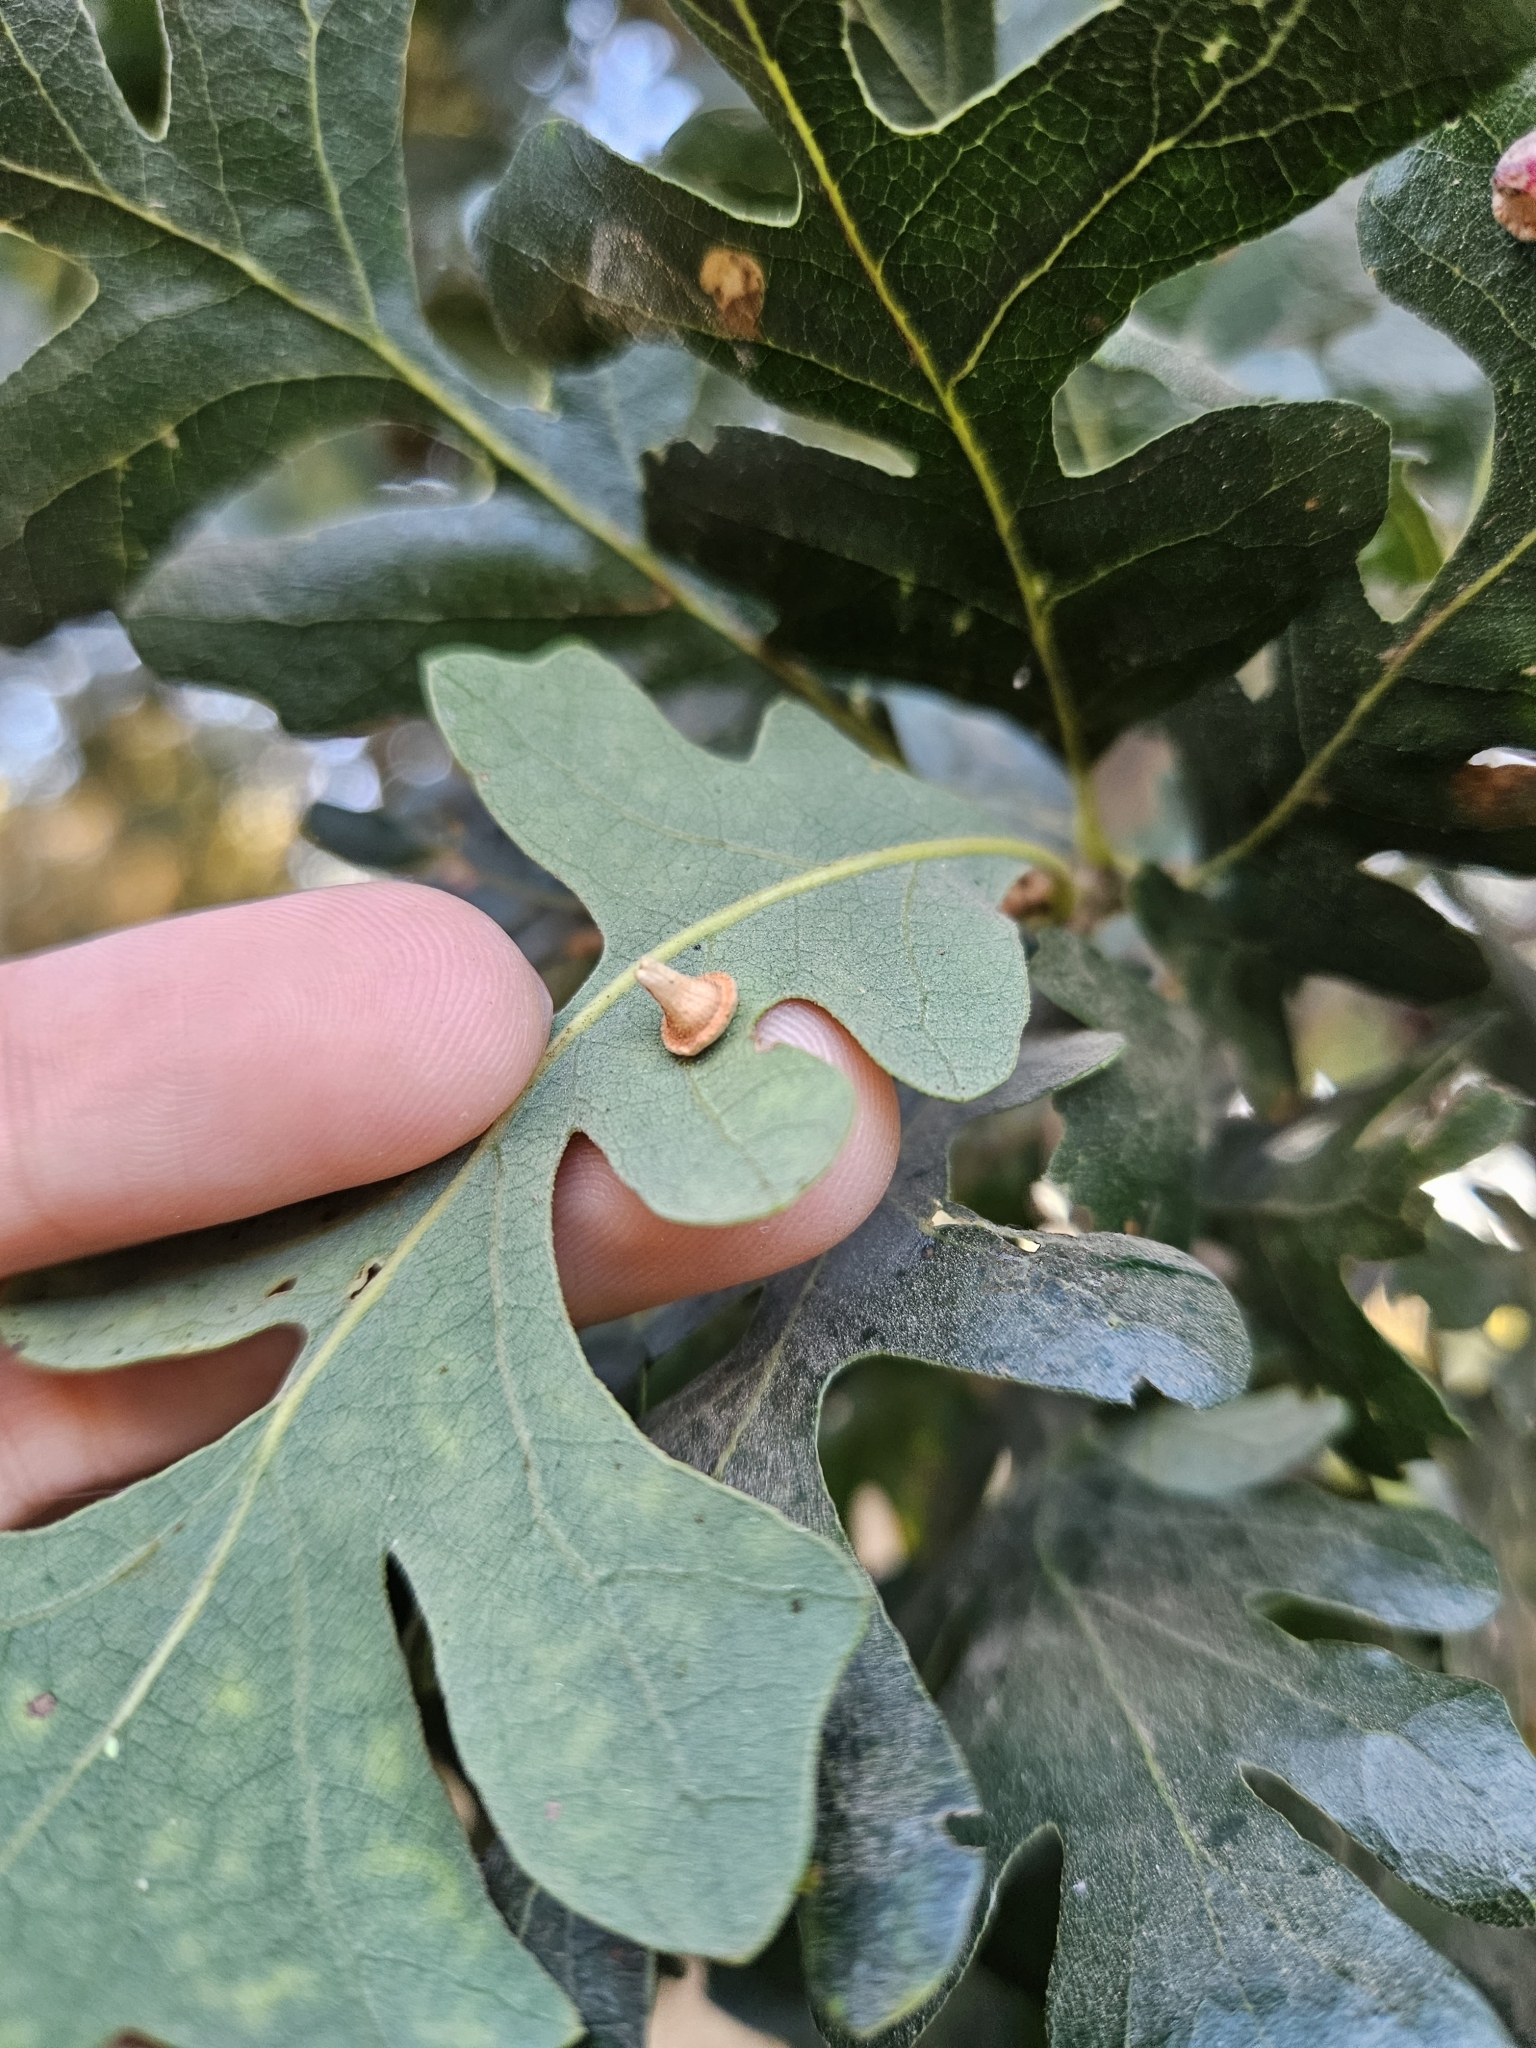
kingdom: Animalia
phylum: Arthropoda
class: Insecta
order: Hymenoptera
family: Cynipidae
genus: Andricus
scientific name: Andricus
